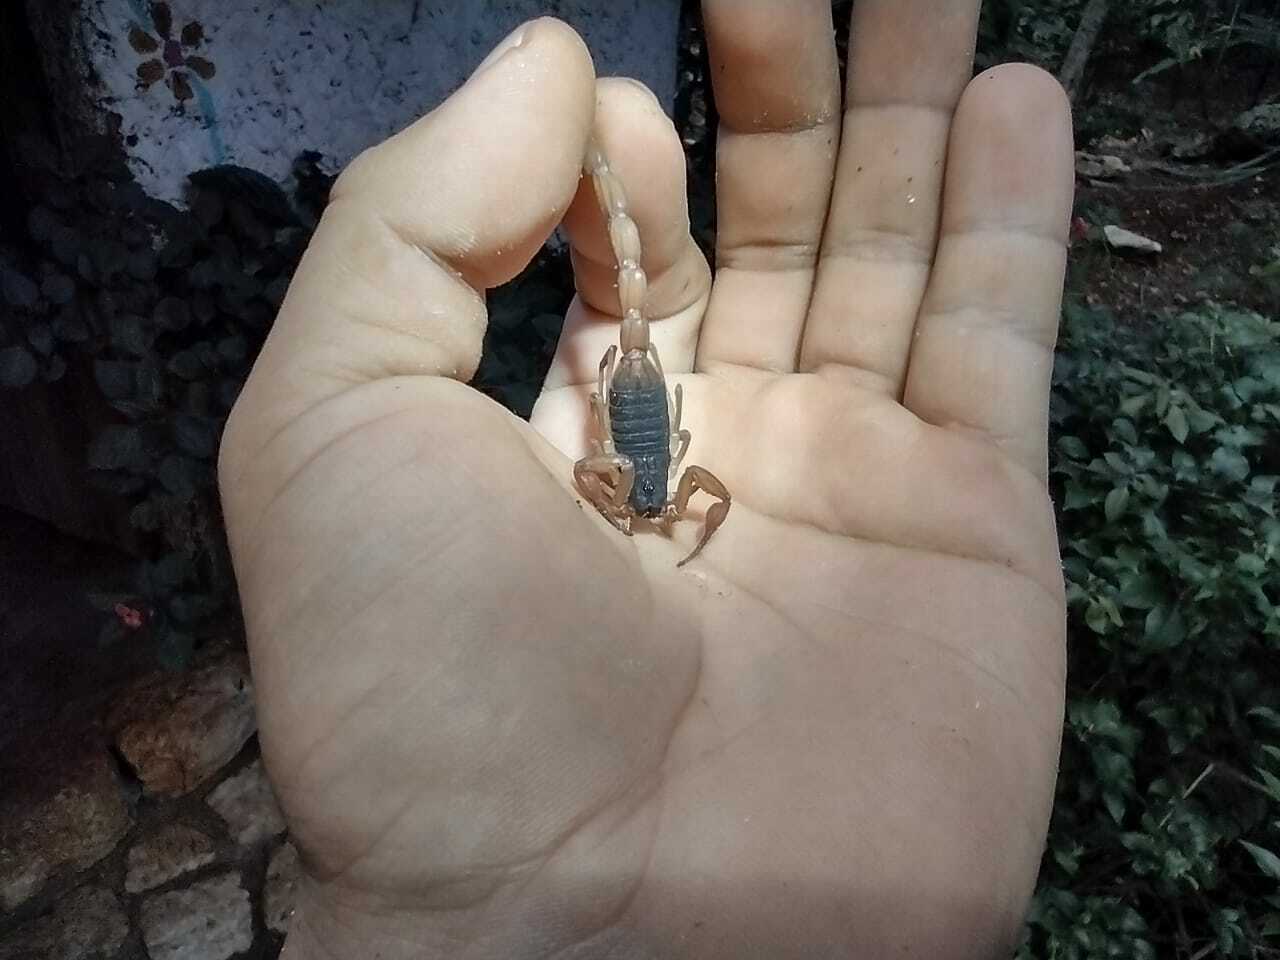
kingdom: Animalia
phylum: Arthropoda
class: Arachnida
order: Scorpiones
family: Buthidae
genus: Centruroides
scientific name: Centruroides ochraceus
